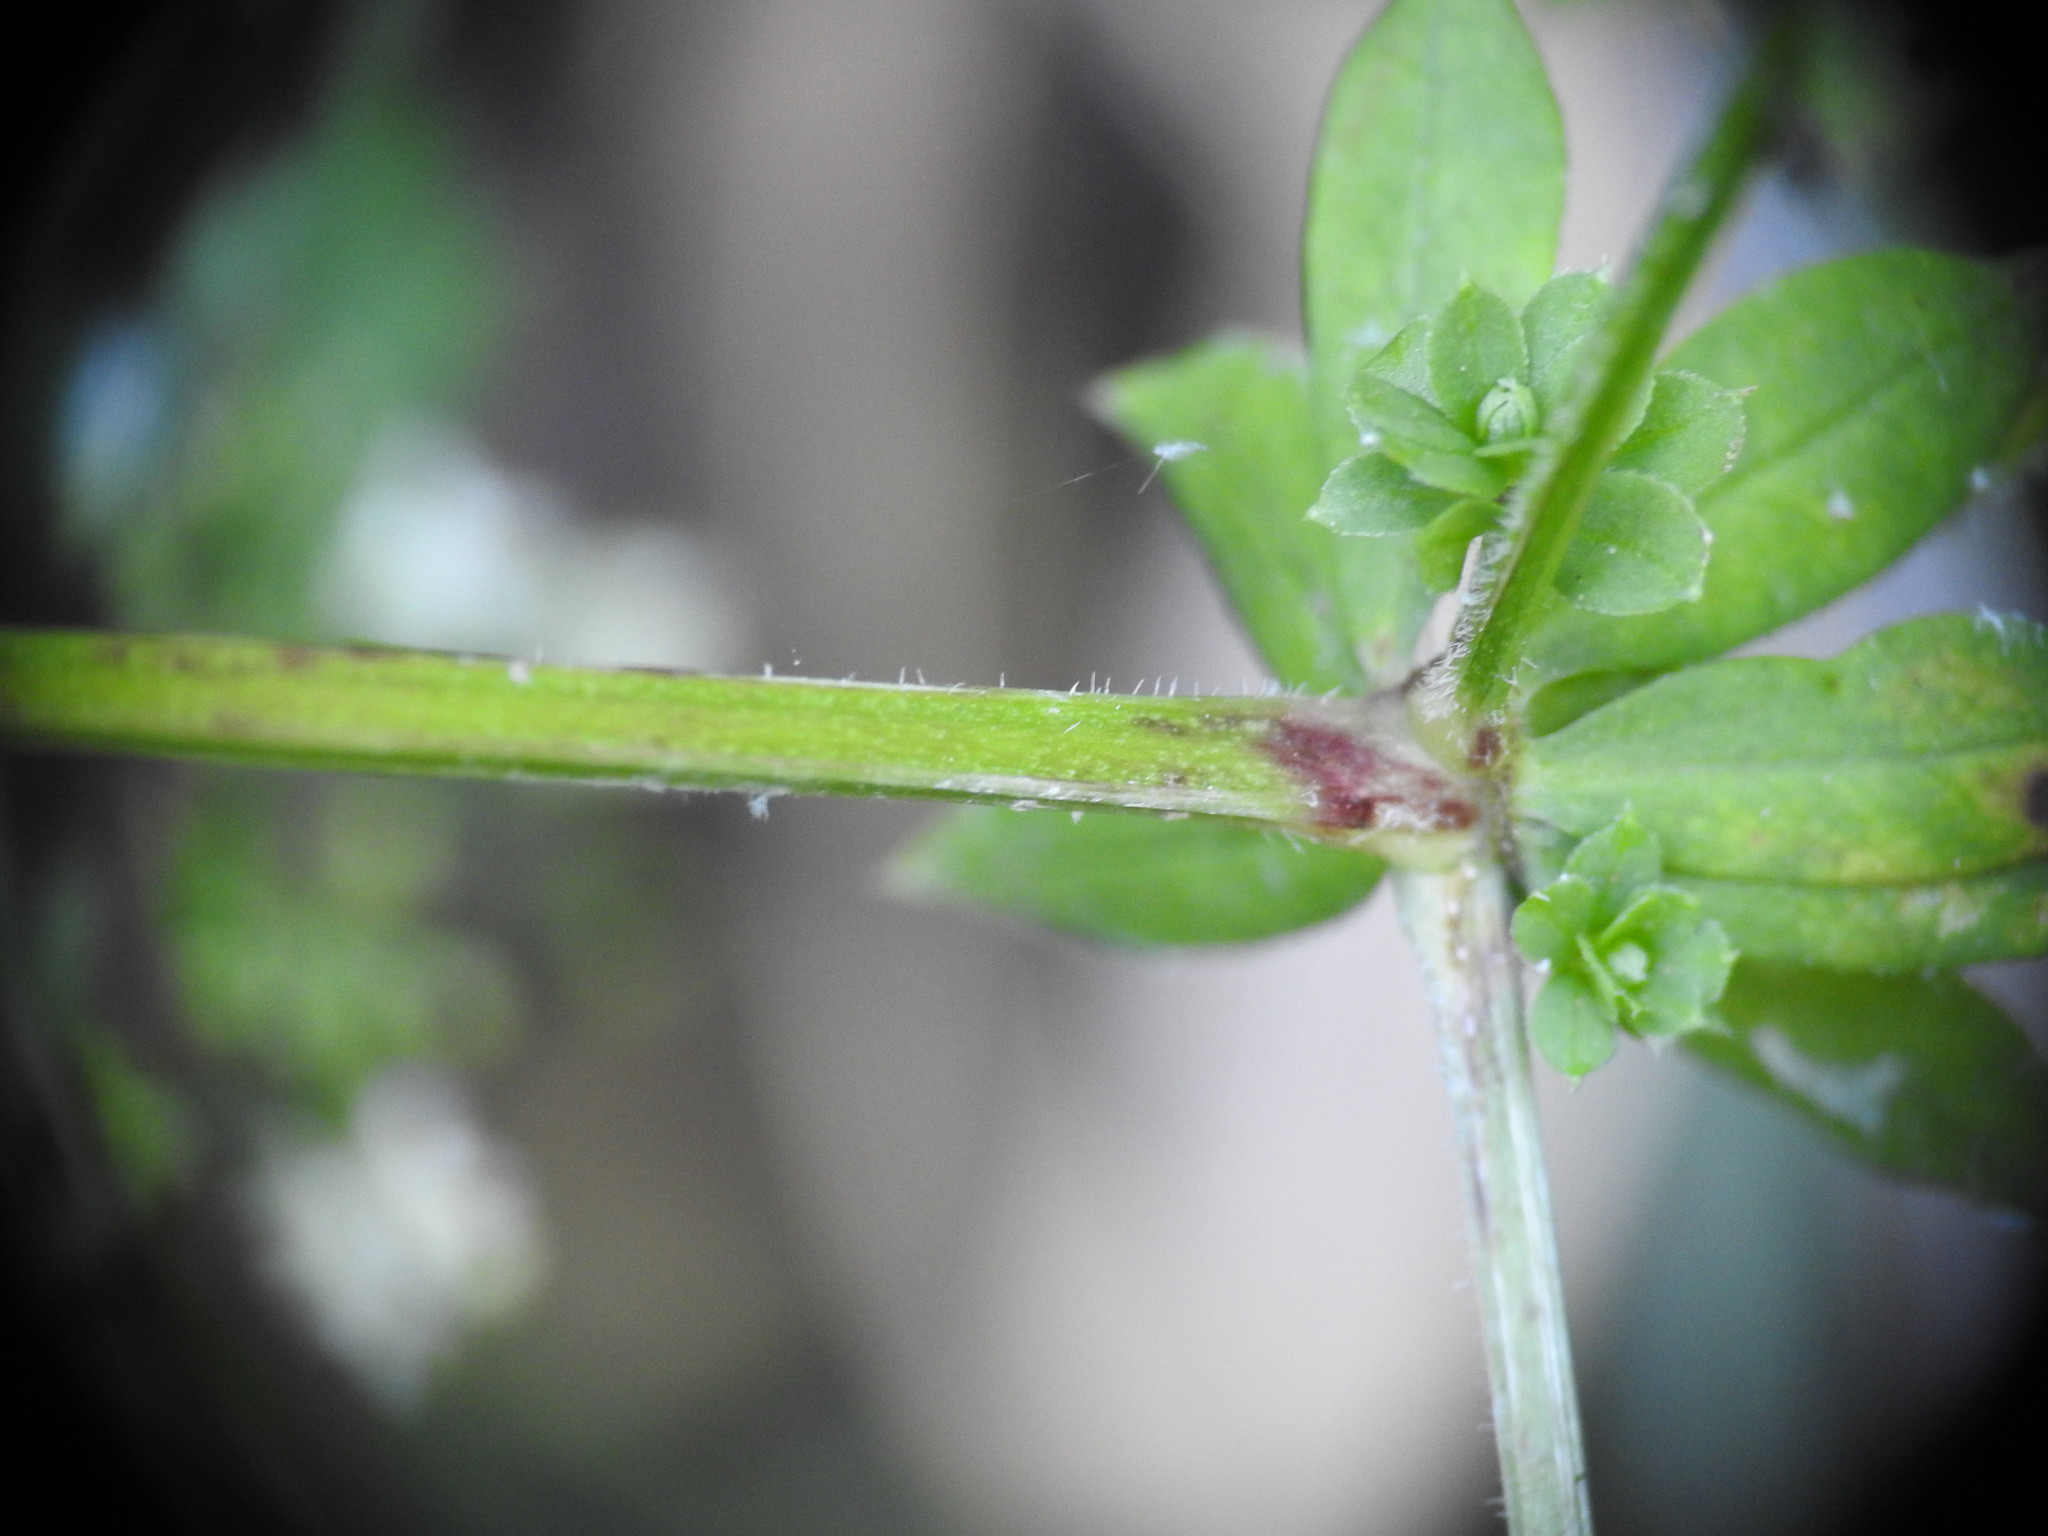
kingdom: Plantae
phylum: Tracheophyta
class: Magnoliopsida
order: Gentianales
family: Rubiaceae
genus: Galium
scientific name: Galium mollugo
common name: Hedge bedstraw
